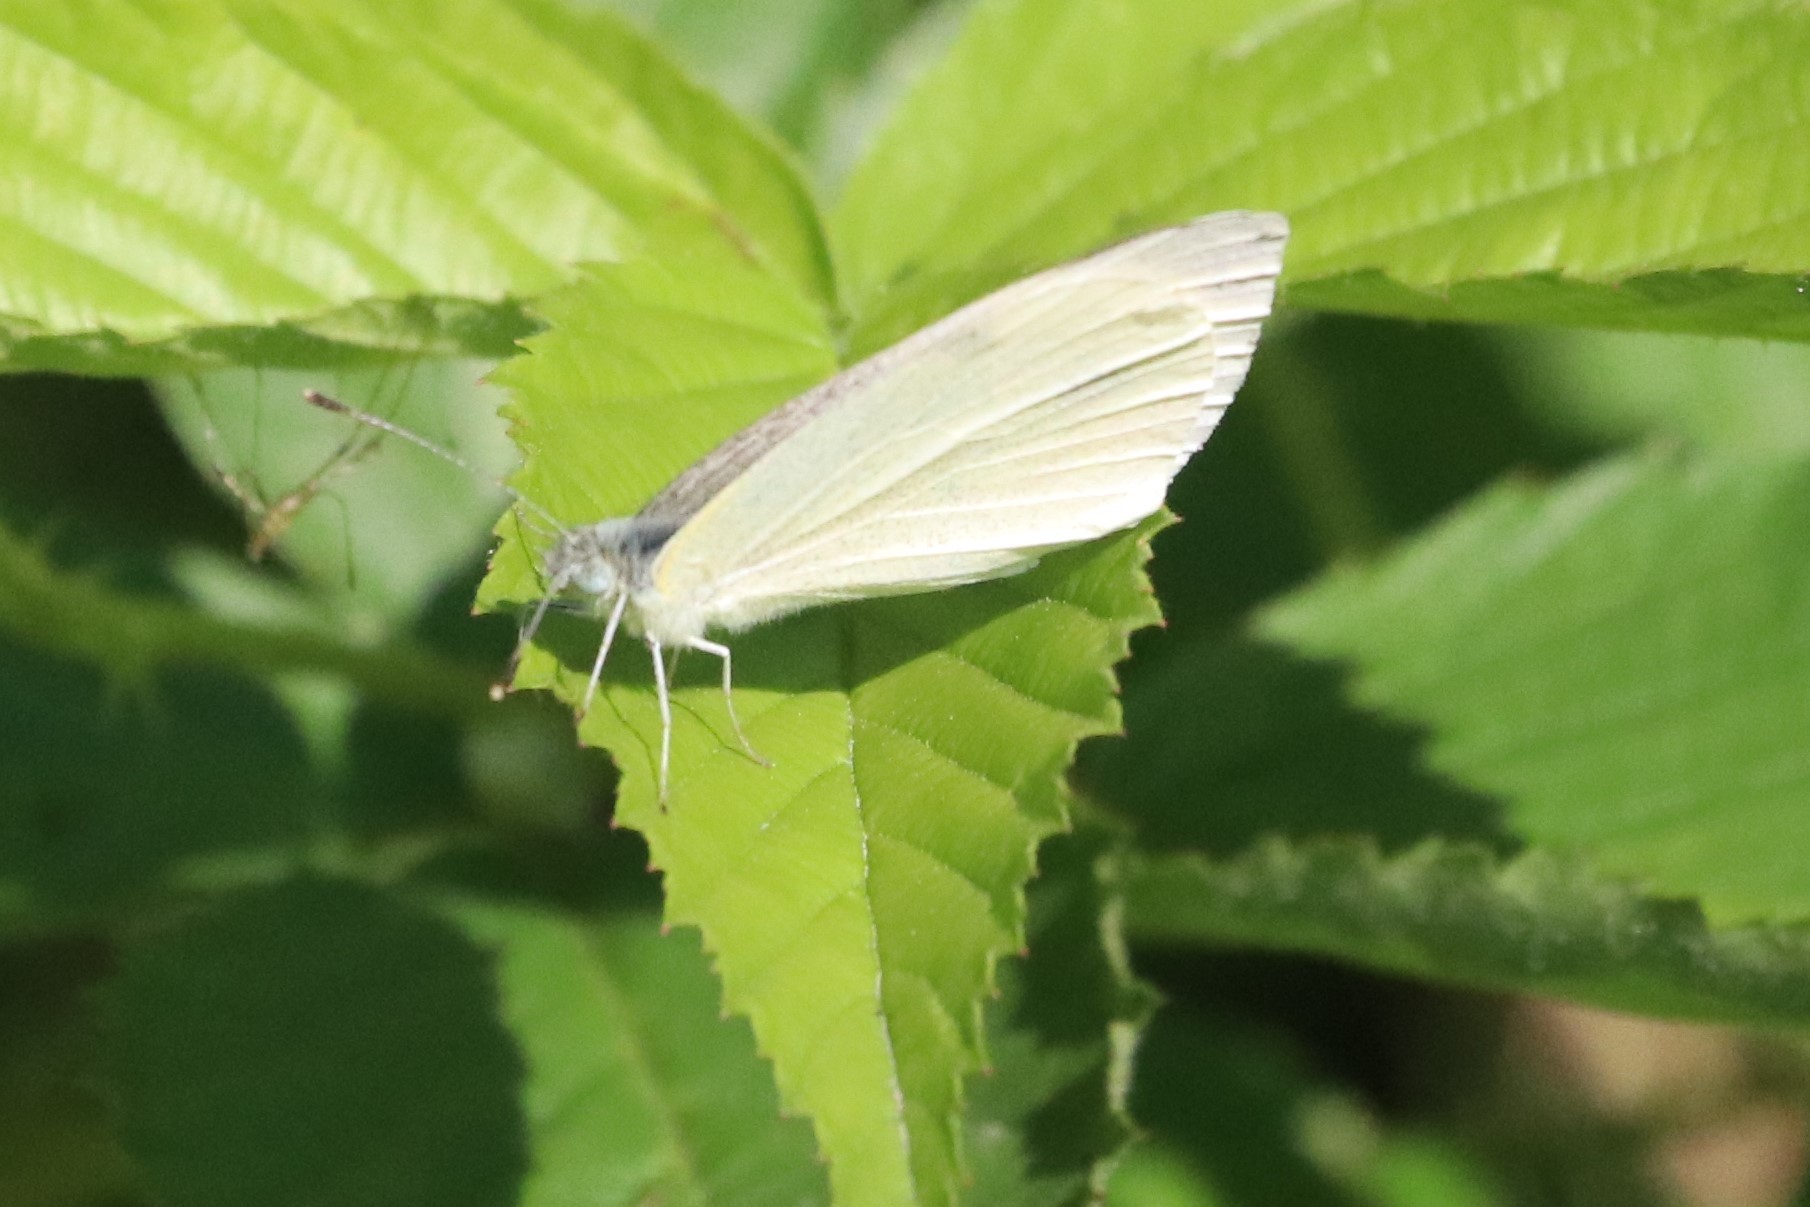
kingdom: Animalia
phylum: Arthropoda
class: Insecta
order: Lepidoptera
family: Pieridae
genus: Pieris
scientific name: Pieris rapae
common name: Small white
